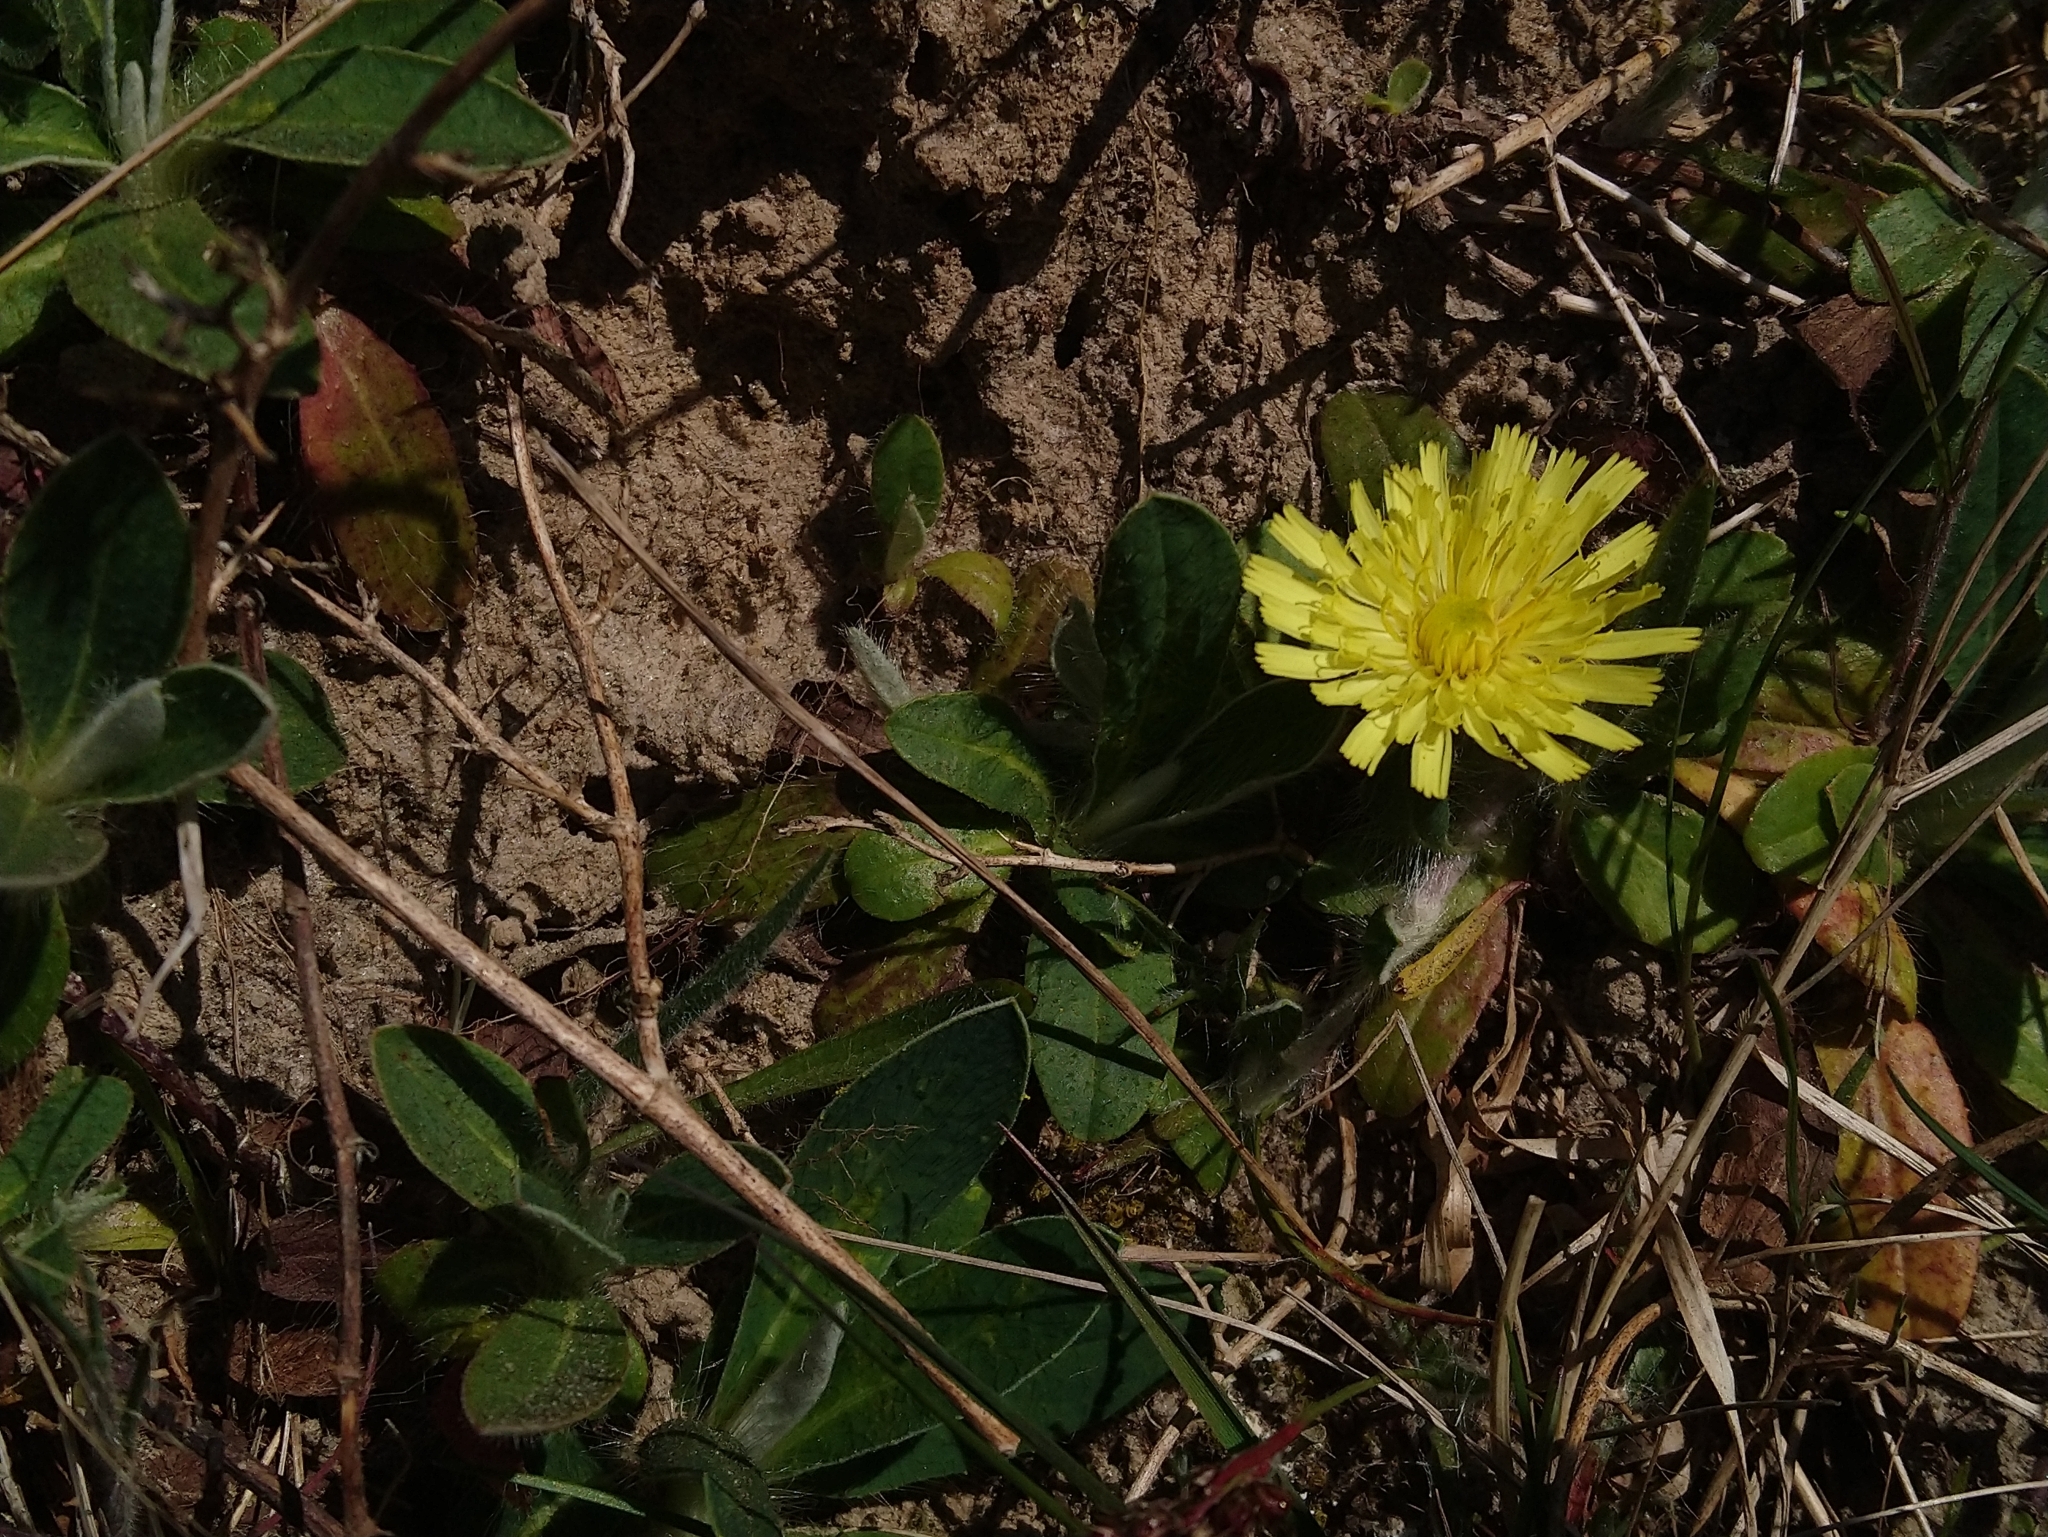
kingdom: Plantae
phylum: Tracheophyta
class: Magnoliopsida
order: Asterales
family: Asteraceae
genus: Pilosella
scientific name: Pilosella officinarum
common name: Mouse-ear hawkweed
